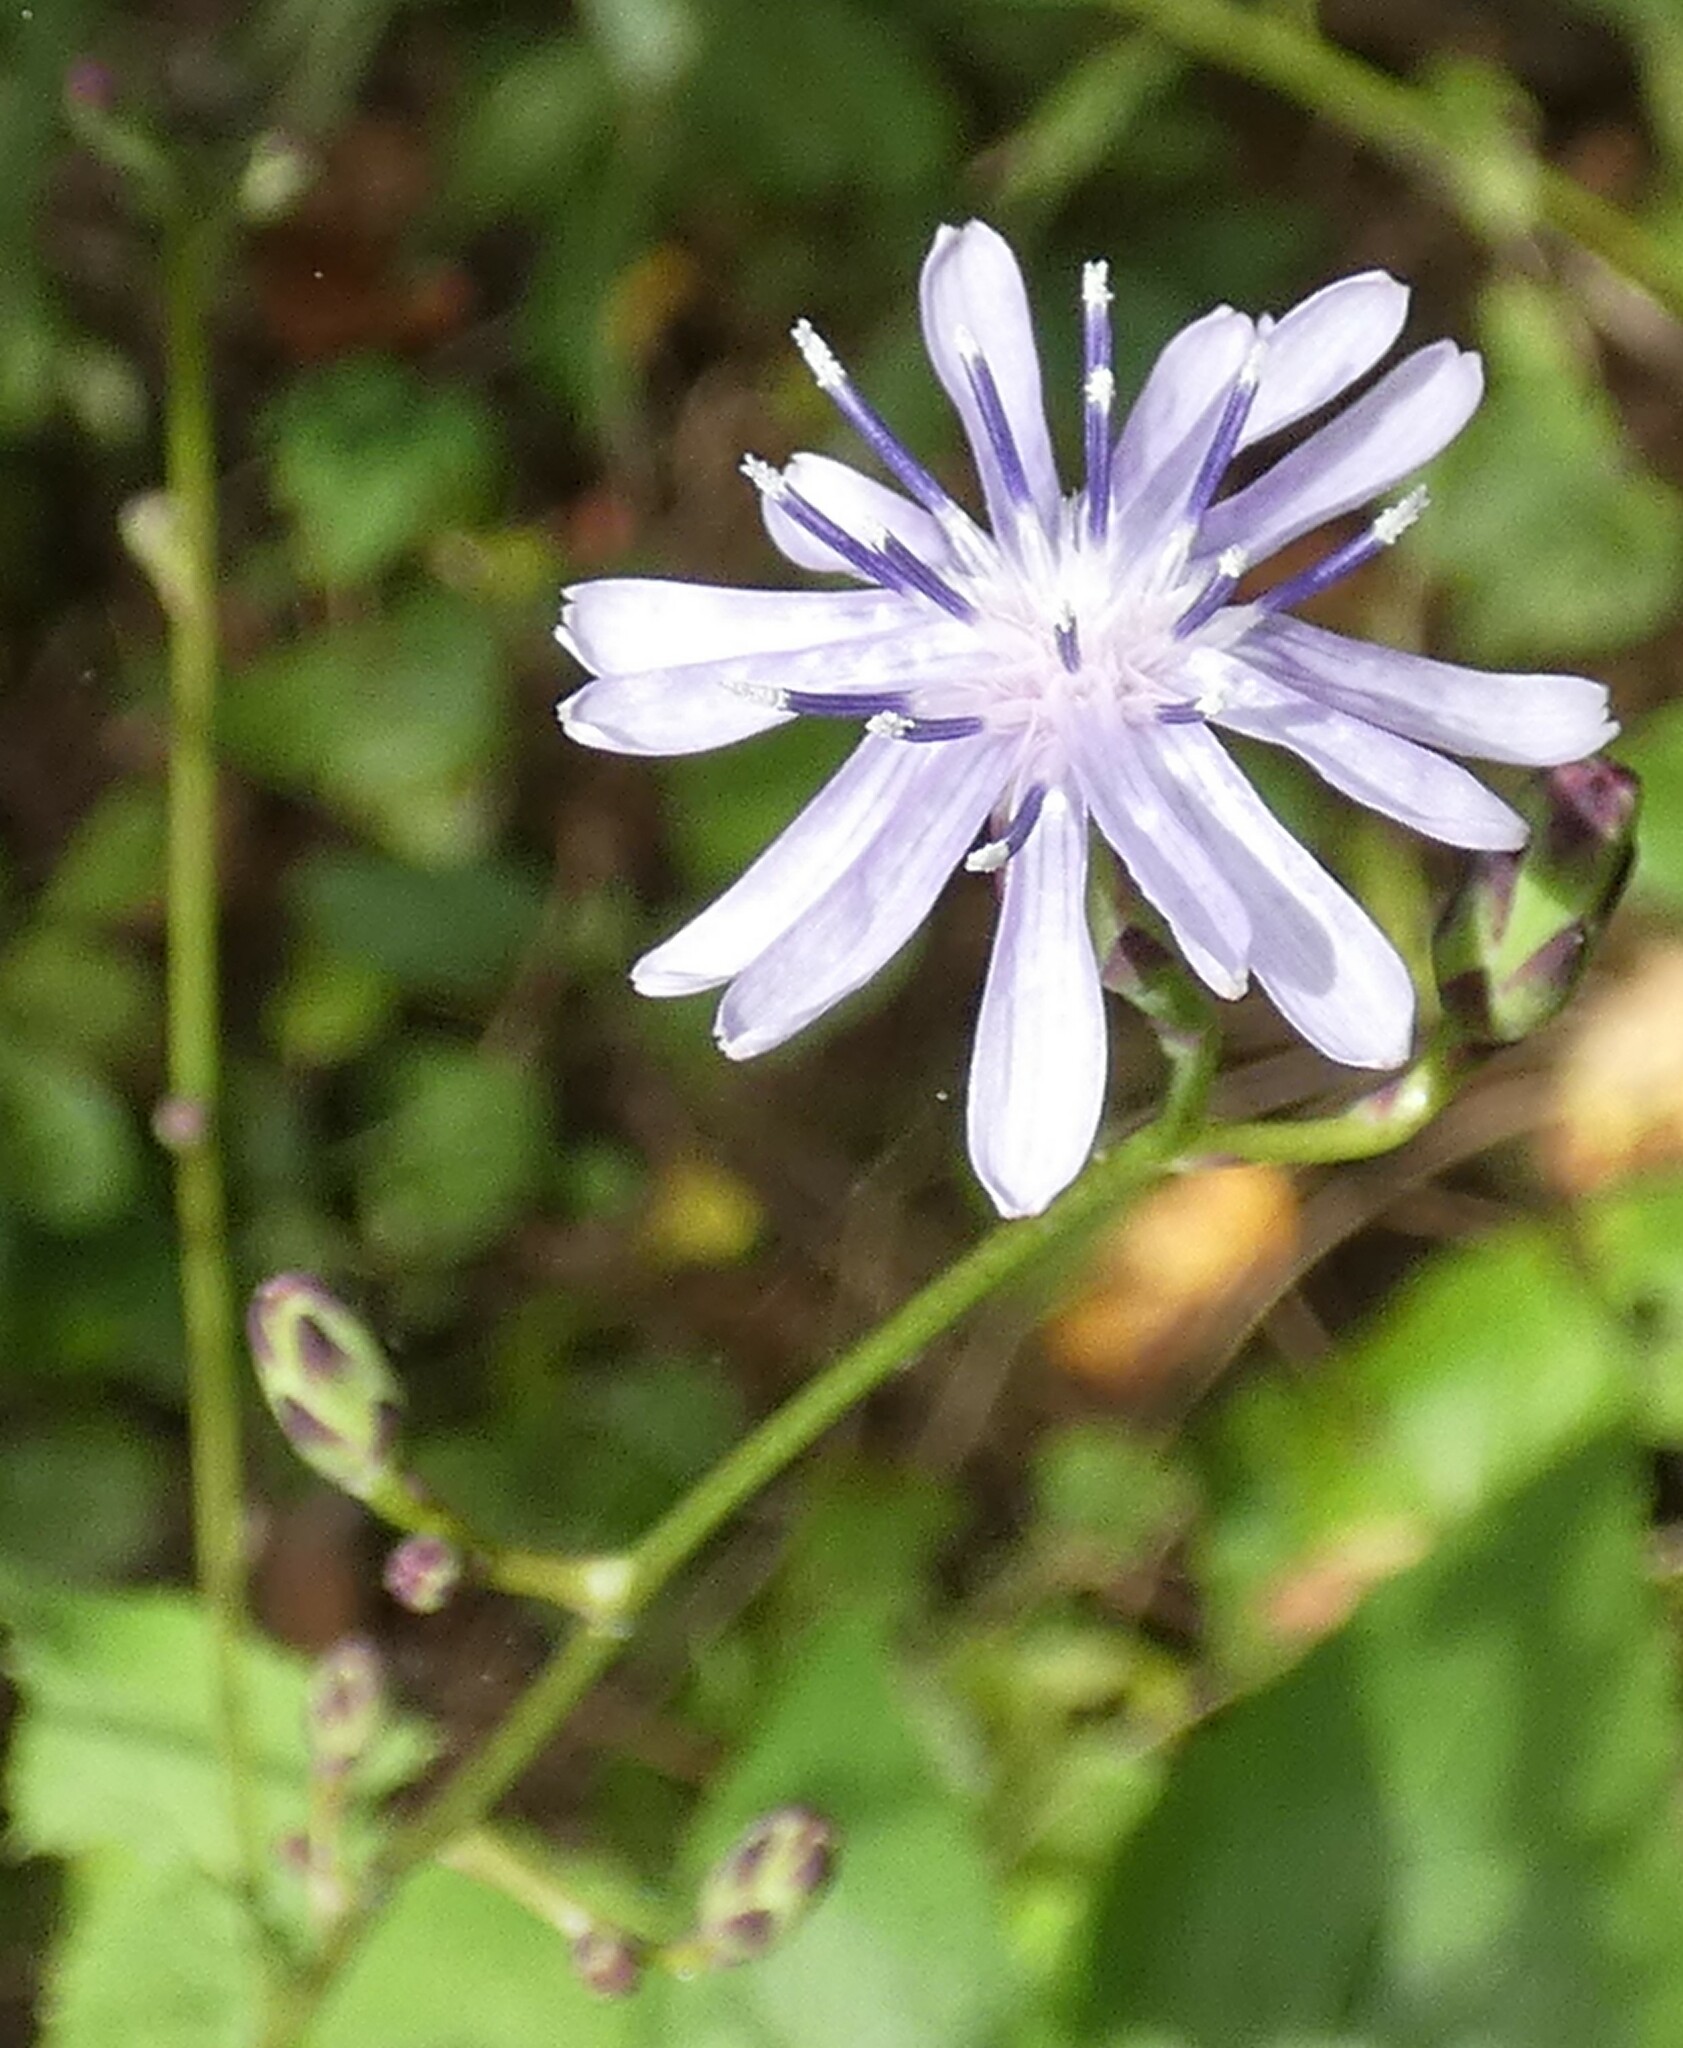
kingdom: Plantae
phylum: Tracheophyta
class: Magnoliopsida
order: Asterales
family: Asteraceae
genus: Lactuca
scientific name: Lactuca floridana
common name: Woodland lettuce
